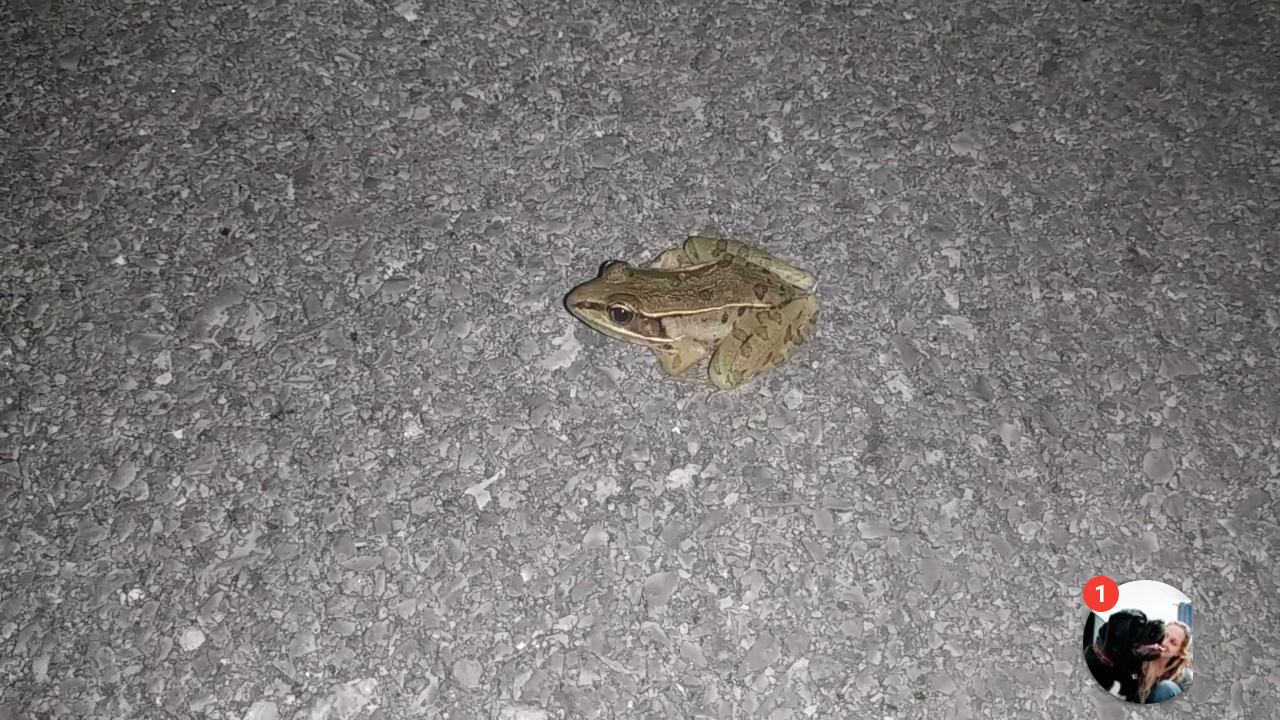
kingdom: Animalia
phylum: Chordata
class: Amphibia
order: Anura
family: Ranidae
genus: Lithobates
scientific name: Lithobates sphenocephalus
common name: Southern leopard frog
